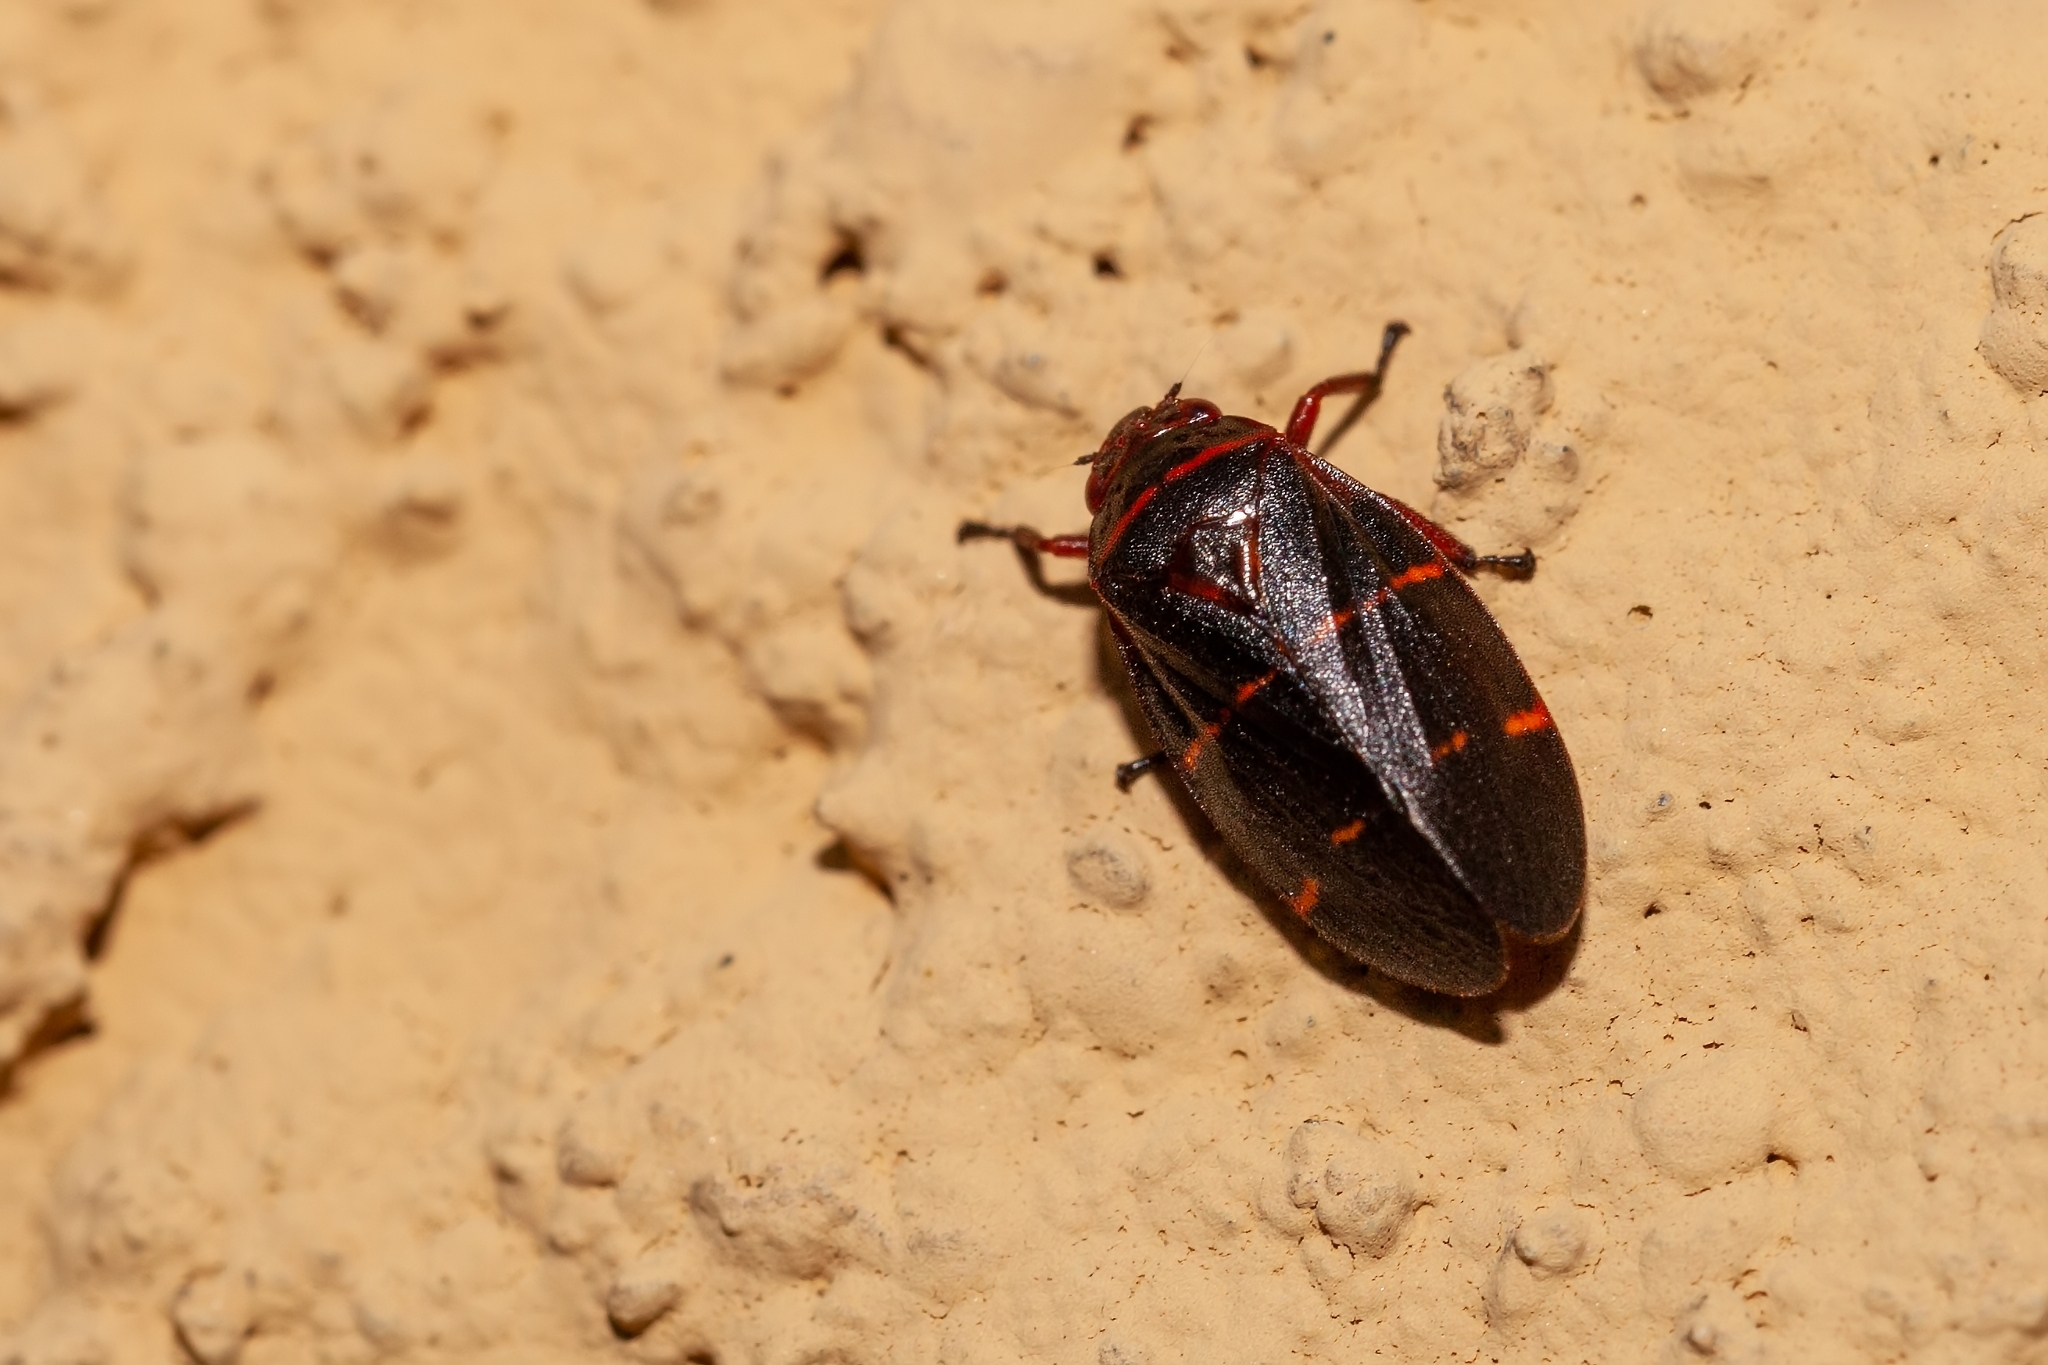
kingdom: Animalia
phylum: Arthropoda
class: Insecta
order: Hemiptera
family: Cercopidae
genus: Prosapia
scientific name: Prosapia bicincta
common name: Twolined spittlebug
